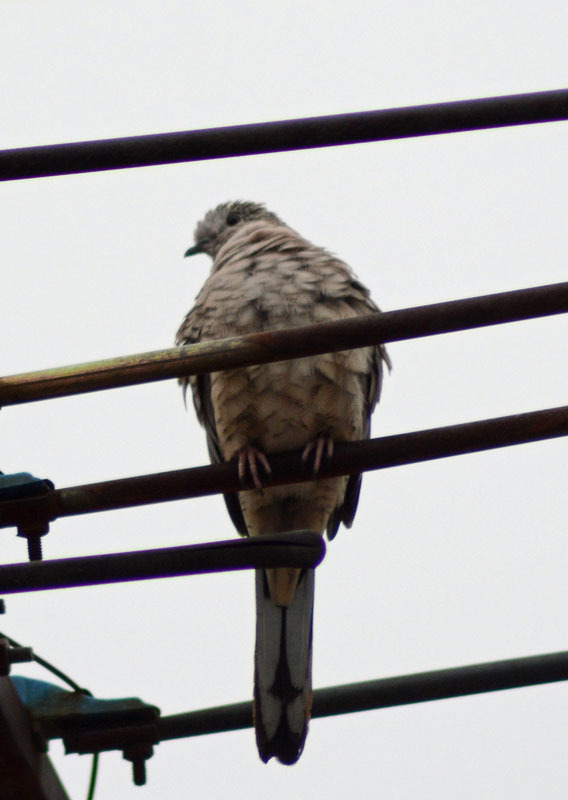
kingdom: Animalia
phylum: Chordata
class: Aves
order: Columbiformes
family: Columbidae
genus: Columbina
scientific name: Columbina inca
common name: Inca dove
